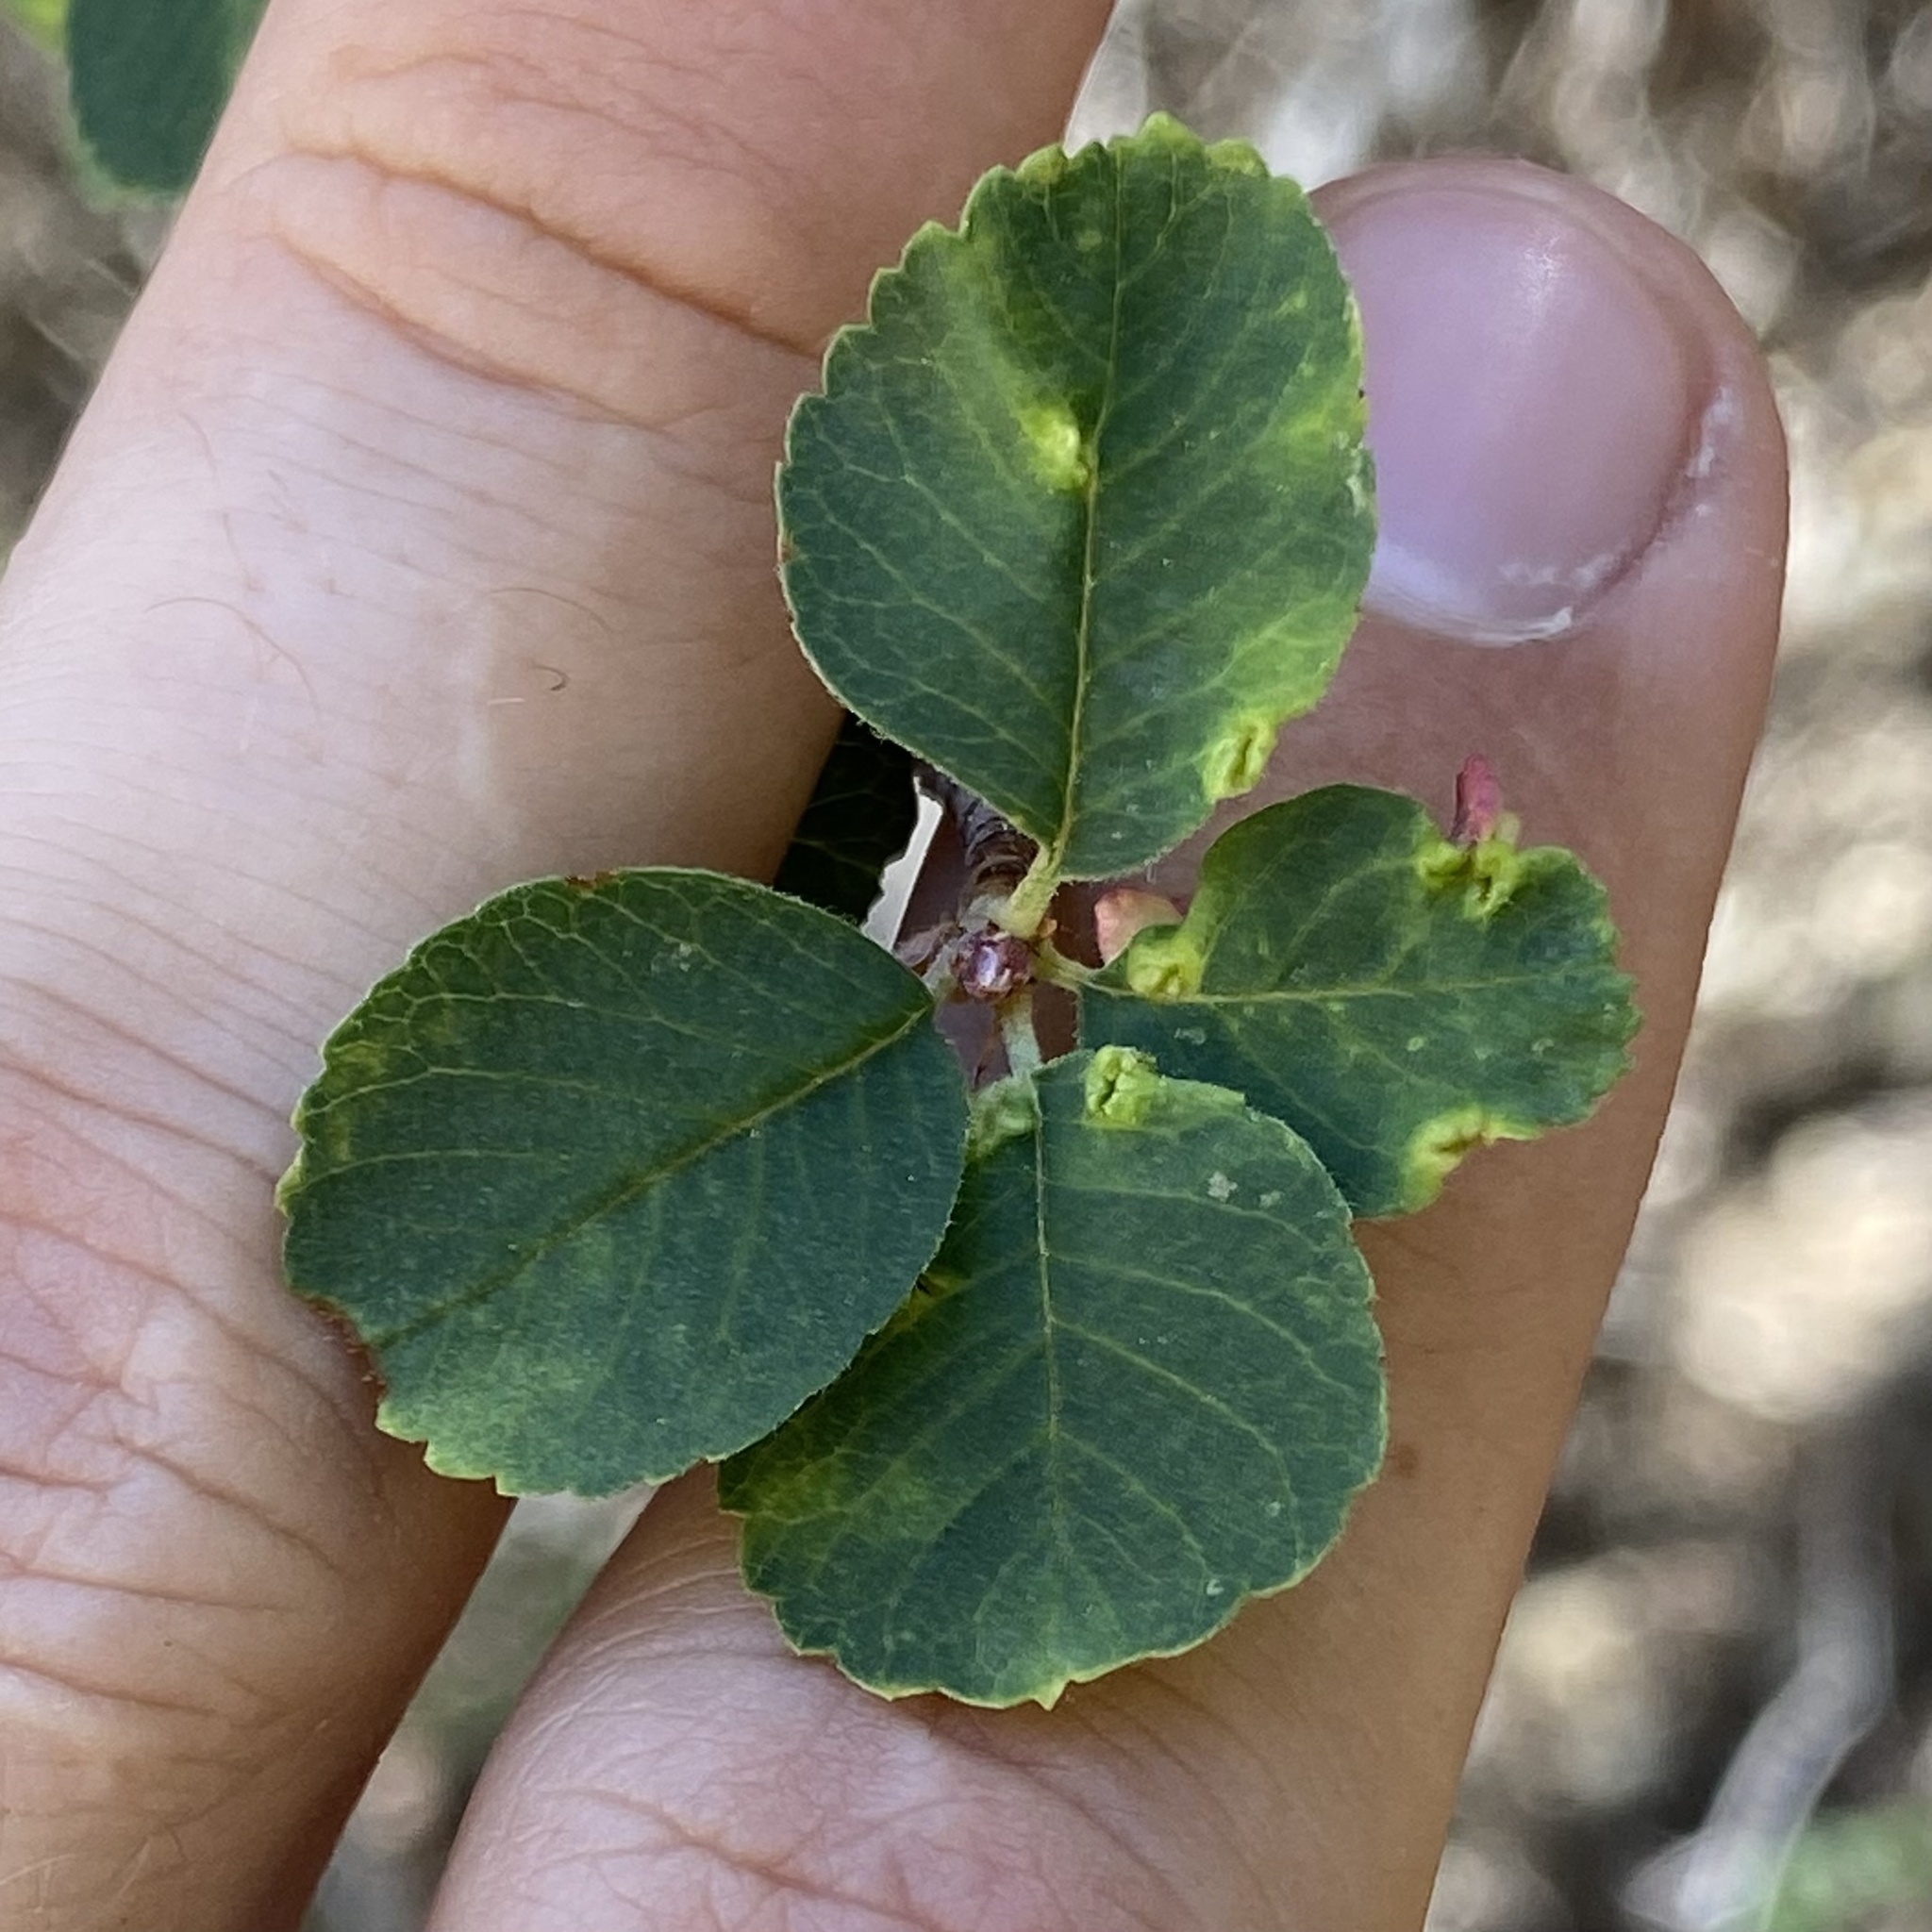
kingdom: Animalia
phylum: Arthropoda
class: Insecta
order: Diptera
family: Cecidomyiidae
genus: Blaesodiplosis
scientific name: Blaesodiplosis
